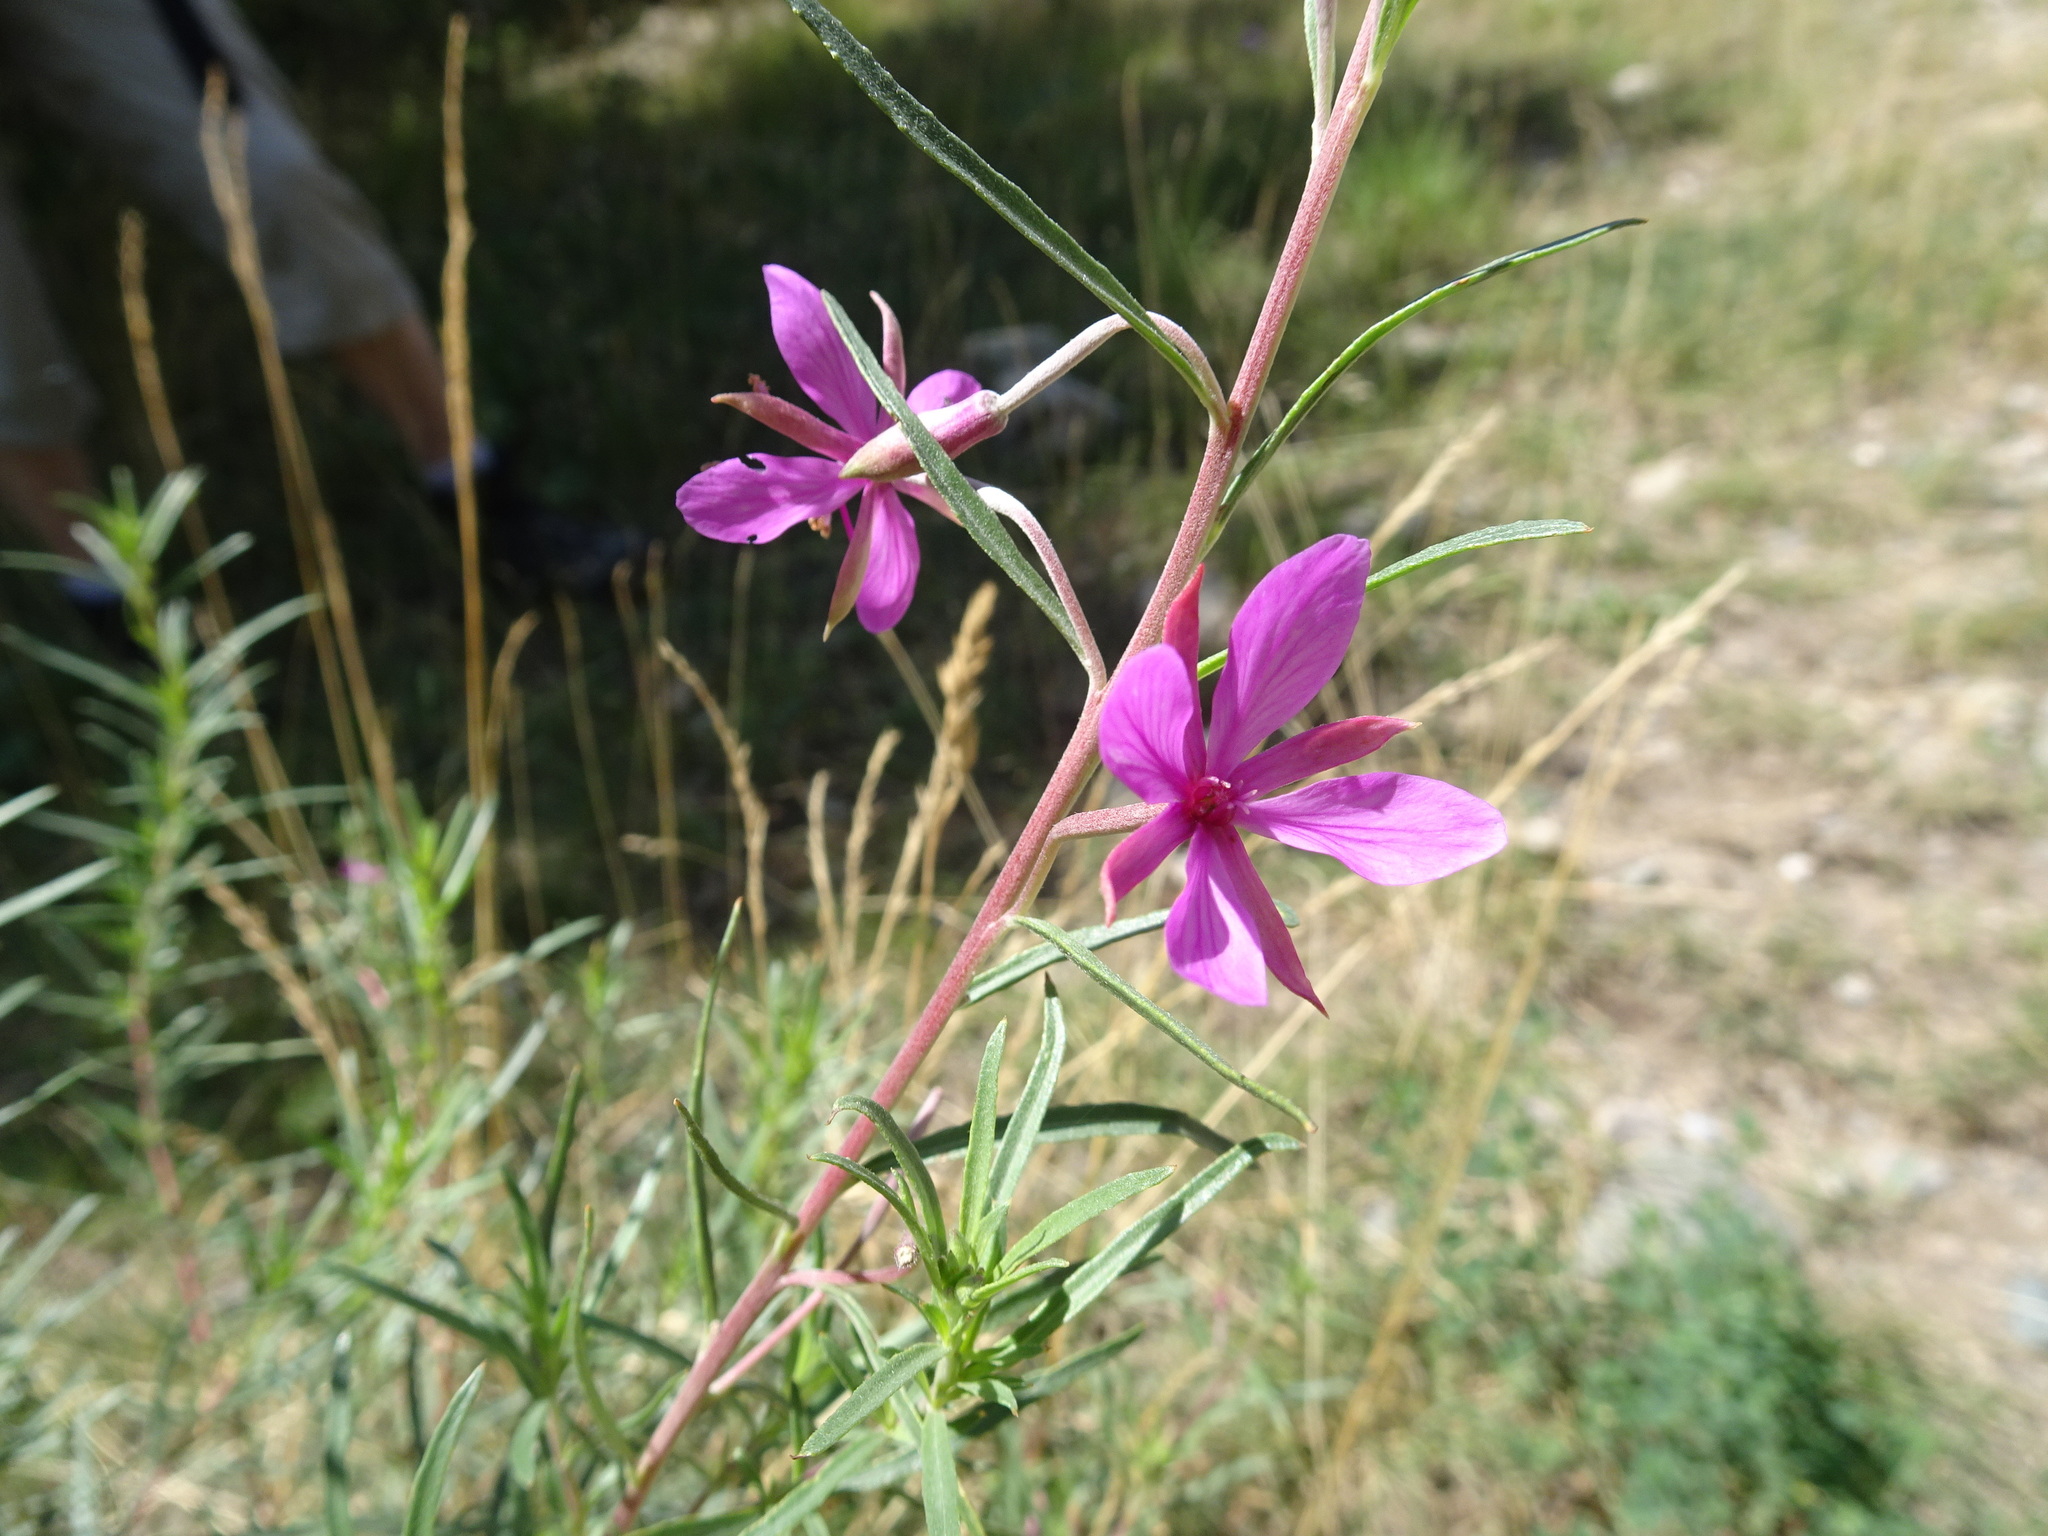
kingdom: Plantae
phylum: Tracheophyta
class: Magnoliopsida
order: Myrtales
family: Onagraceae
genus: Chamaenerion
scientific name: Chamaenerion dodonaei
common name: Rosemary-leaved willowherb
